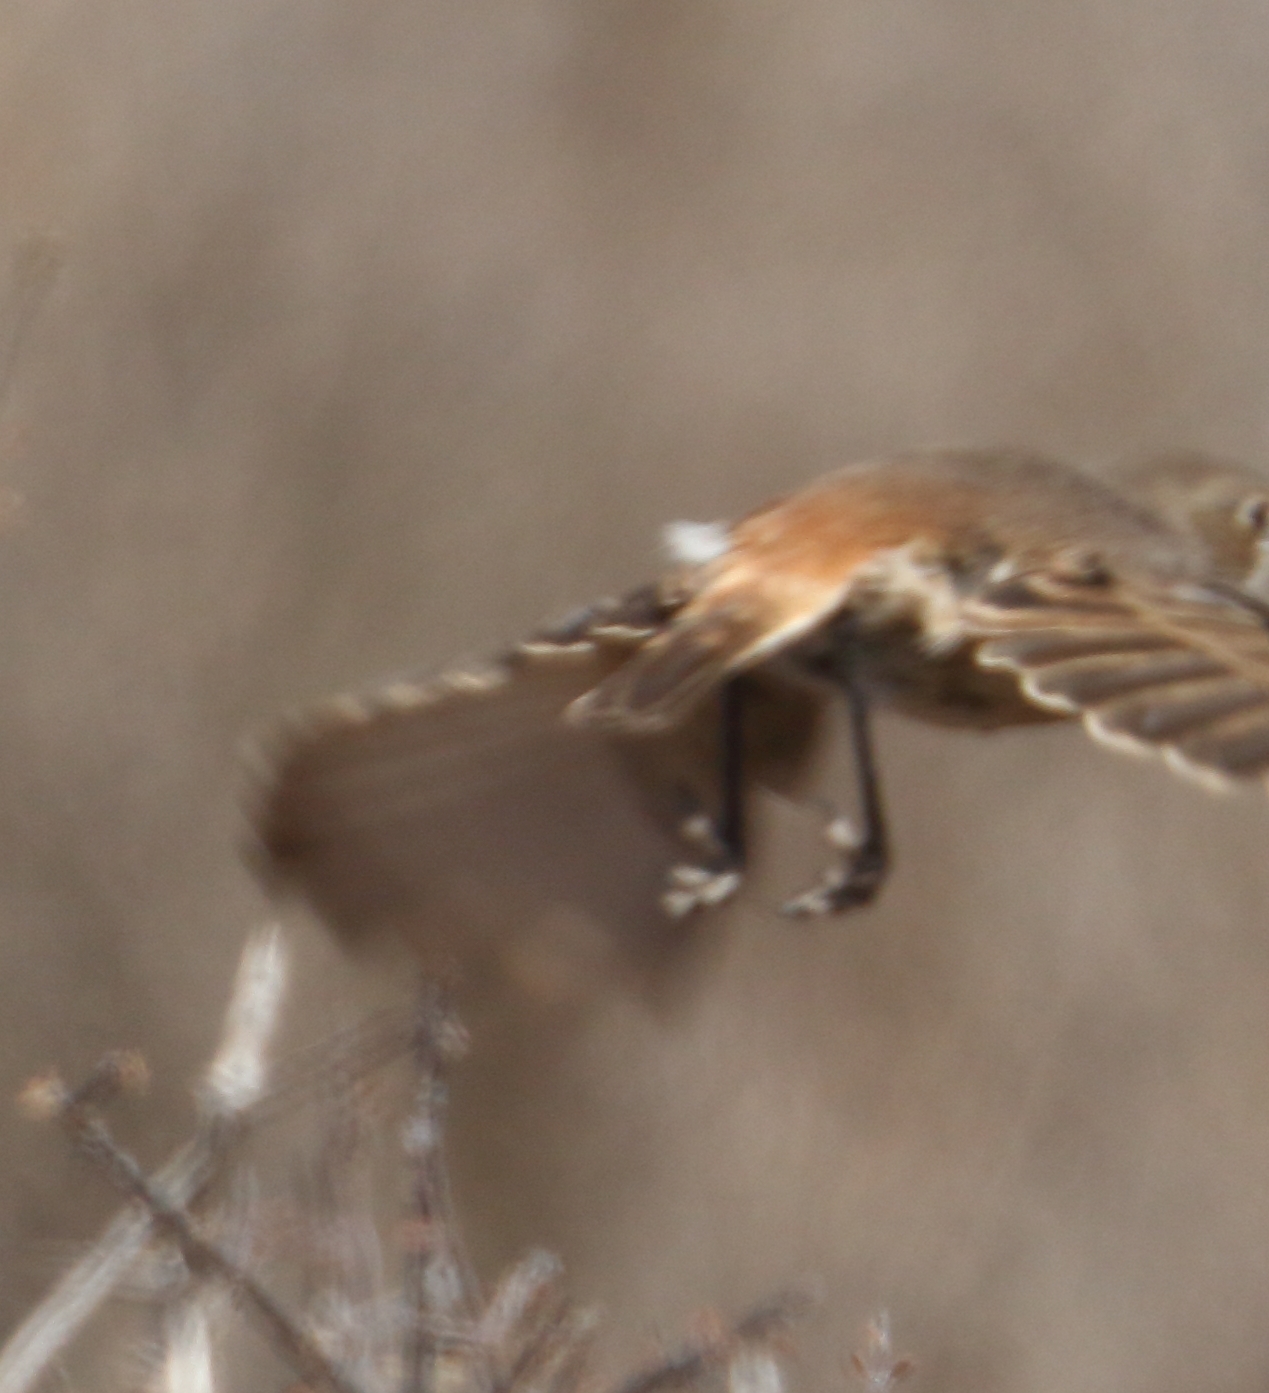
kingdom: Animalia
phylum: Chordata
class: Aves
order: Passeriformes
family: Muscicapidae
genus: Oenanthe
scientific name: Oenanthe familiaris
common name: Familiar chat
